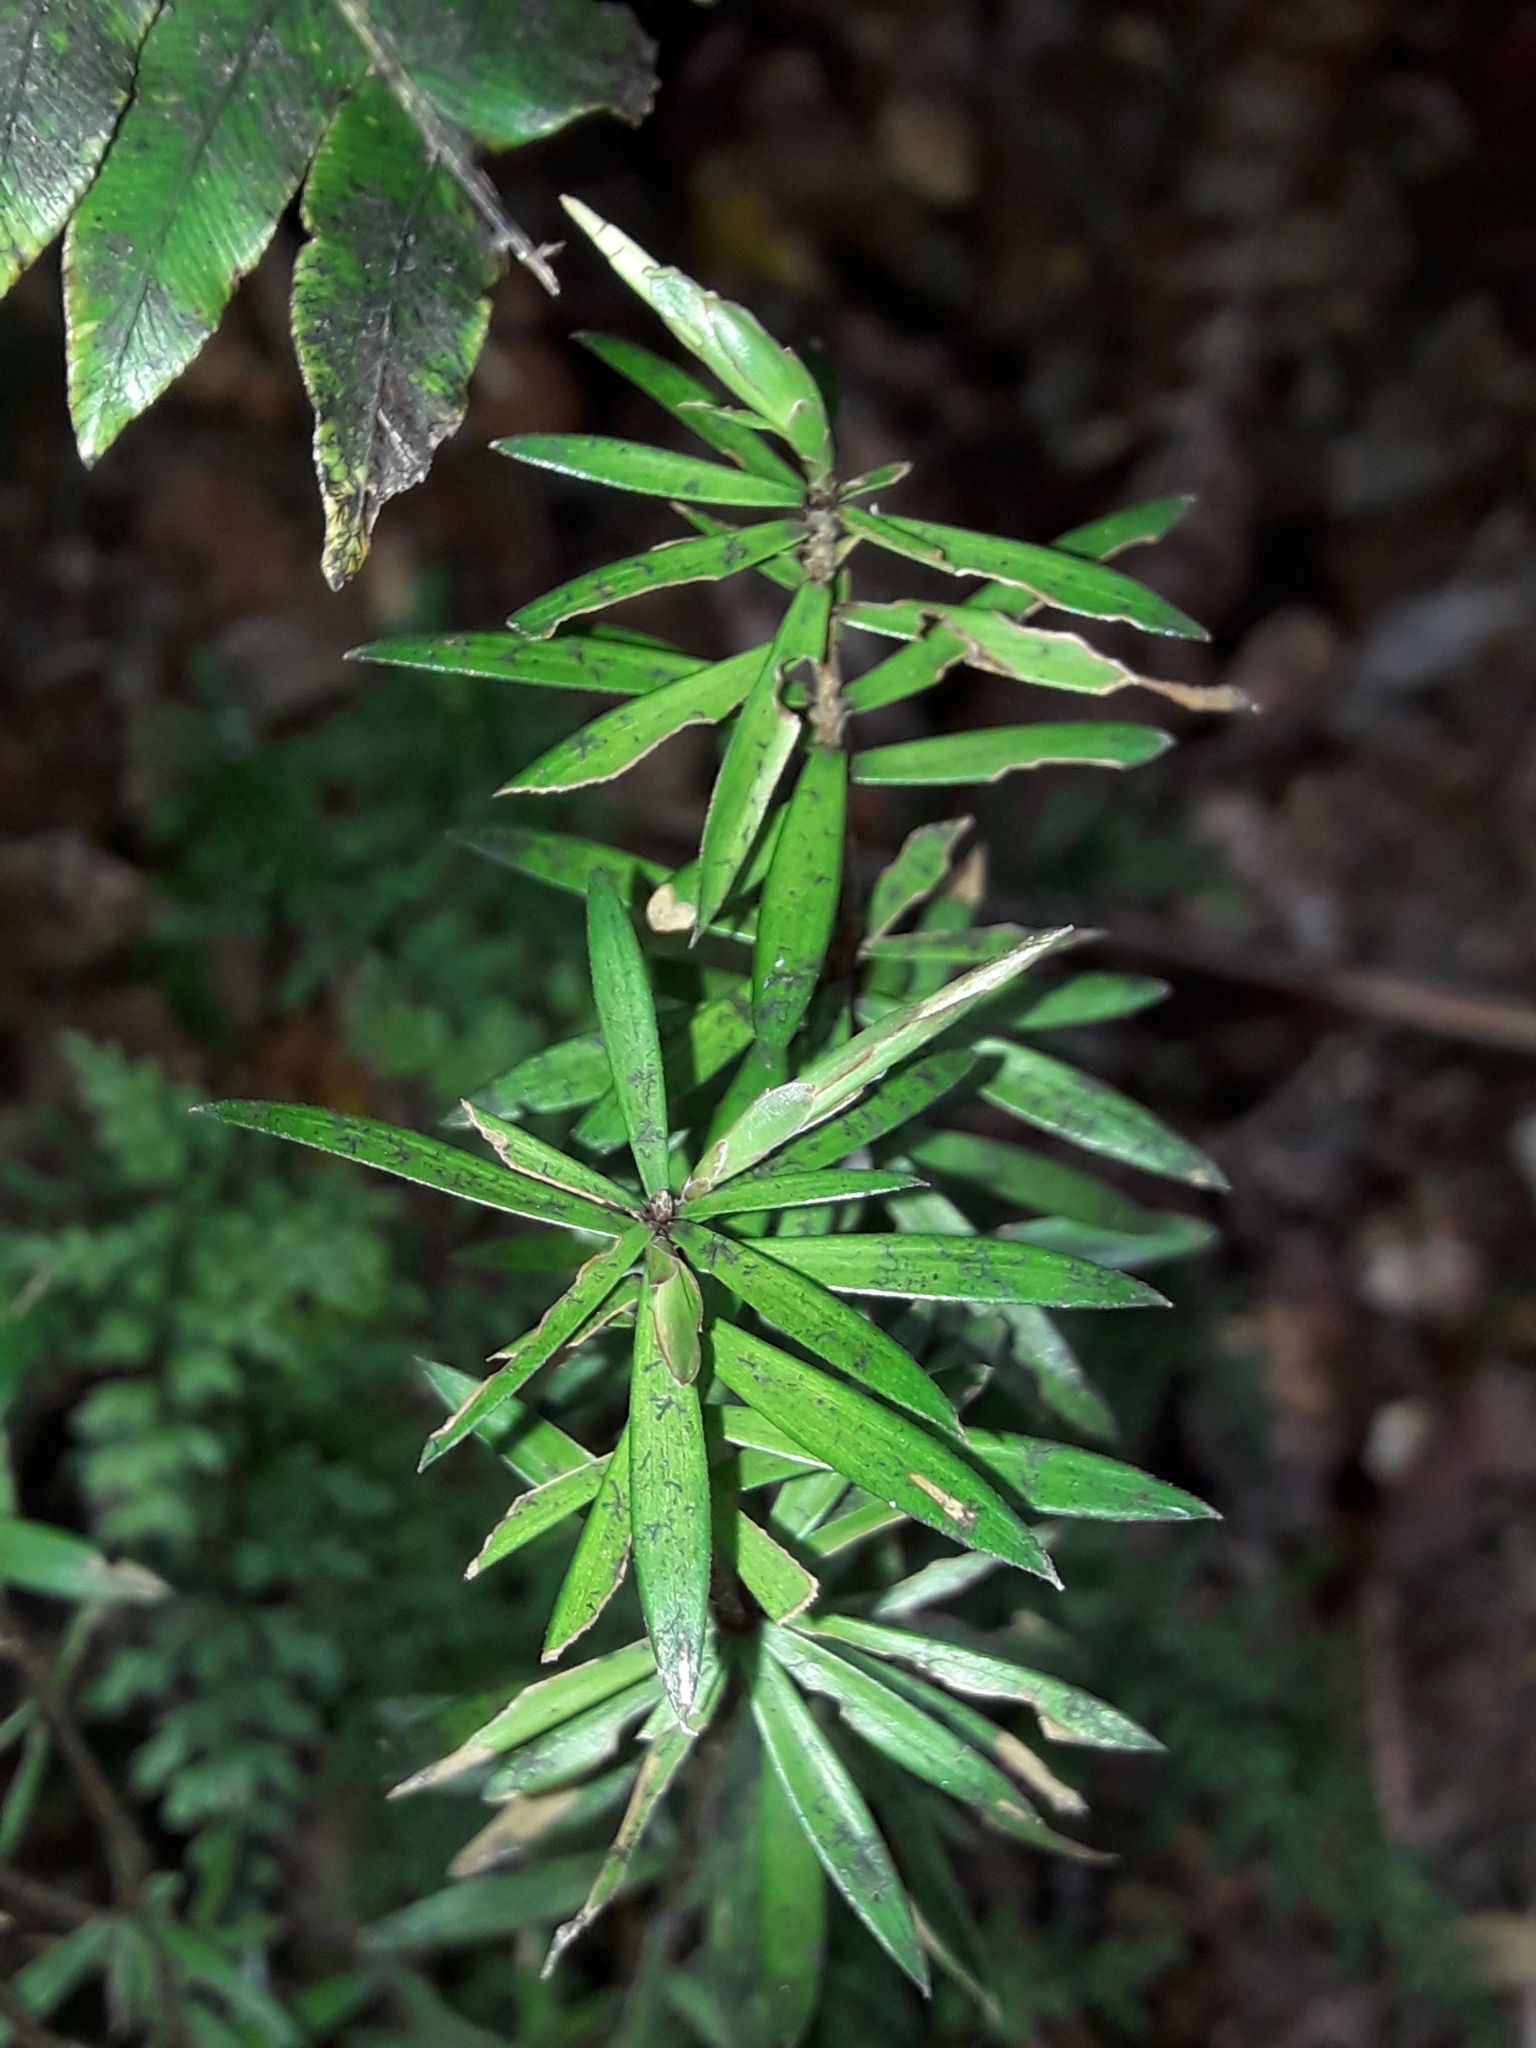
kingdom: Plantae
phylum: Tracheophyta
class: Magnoliopsida
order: Ericales
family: Ericaceae
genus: Leucopogon
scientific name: Leucopogon fasciculatus
